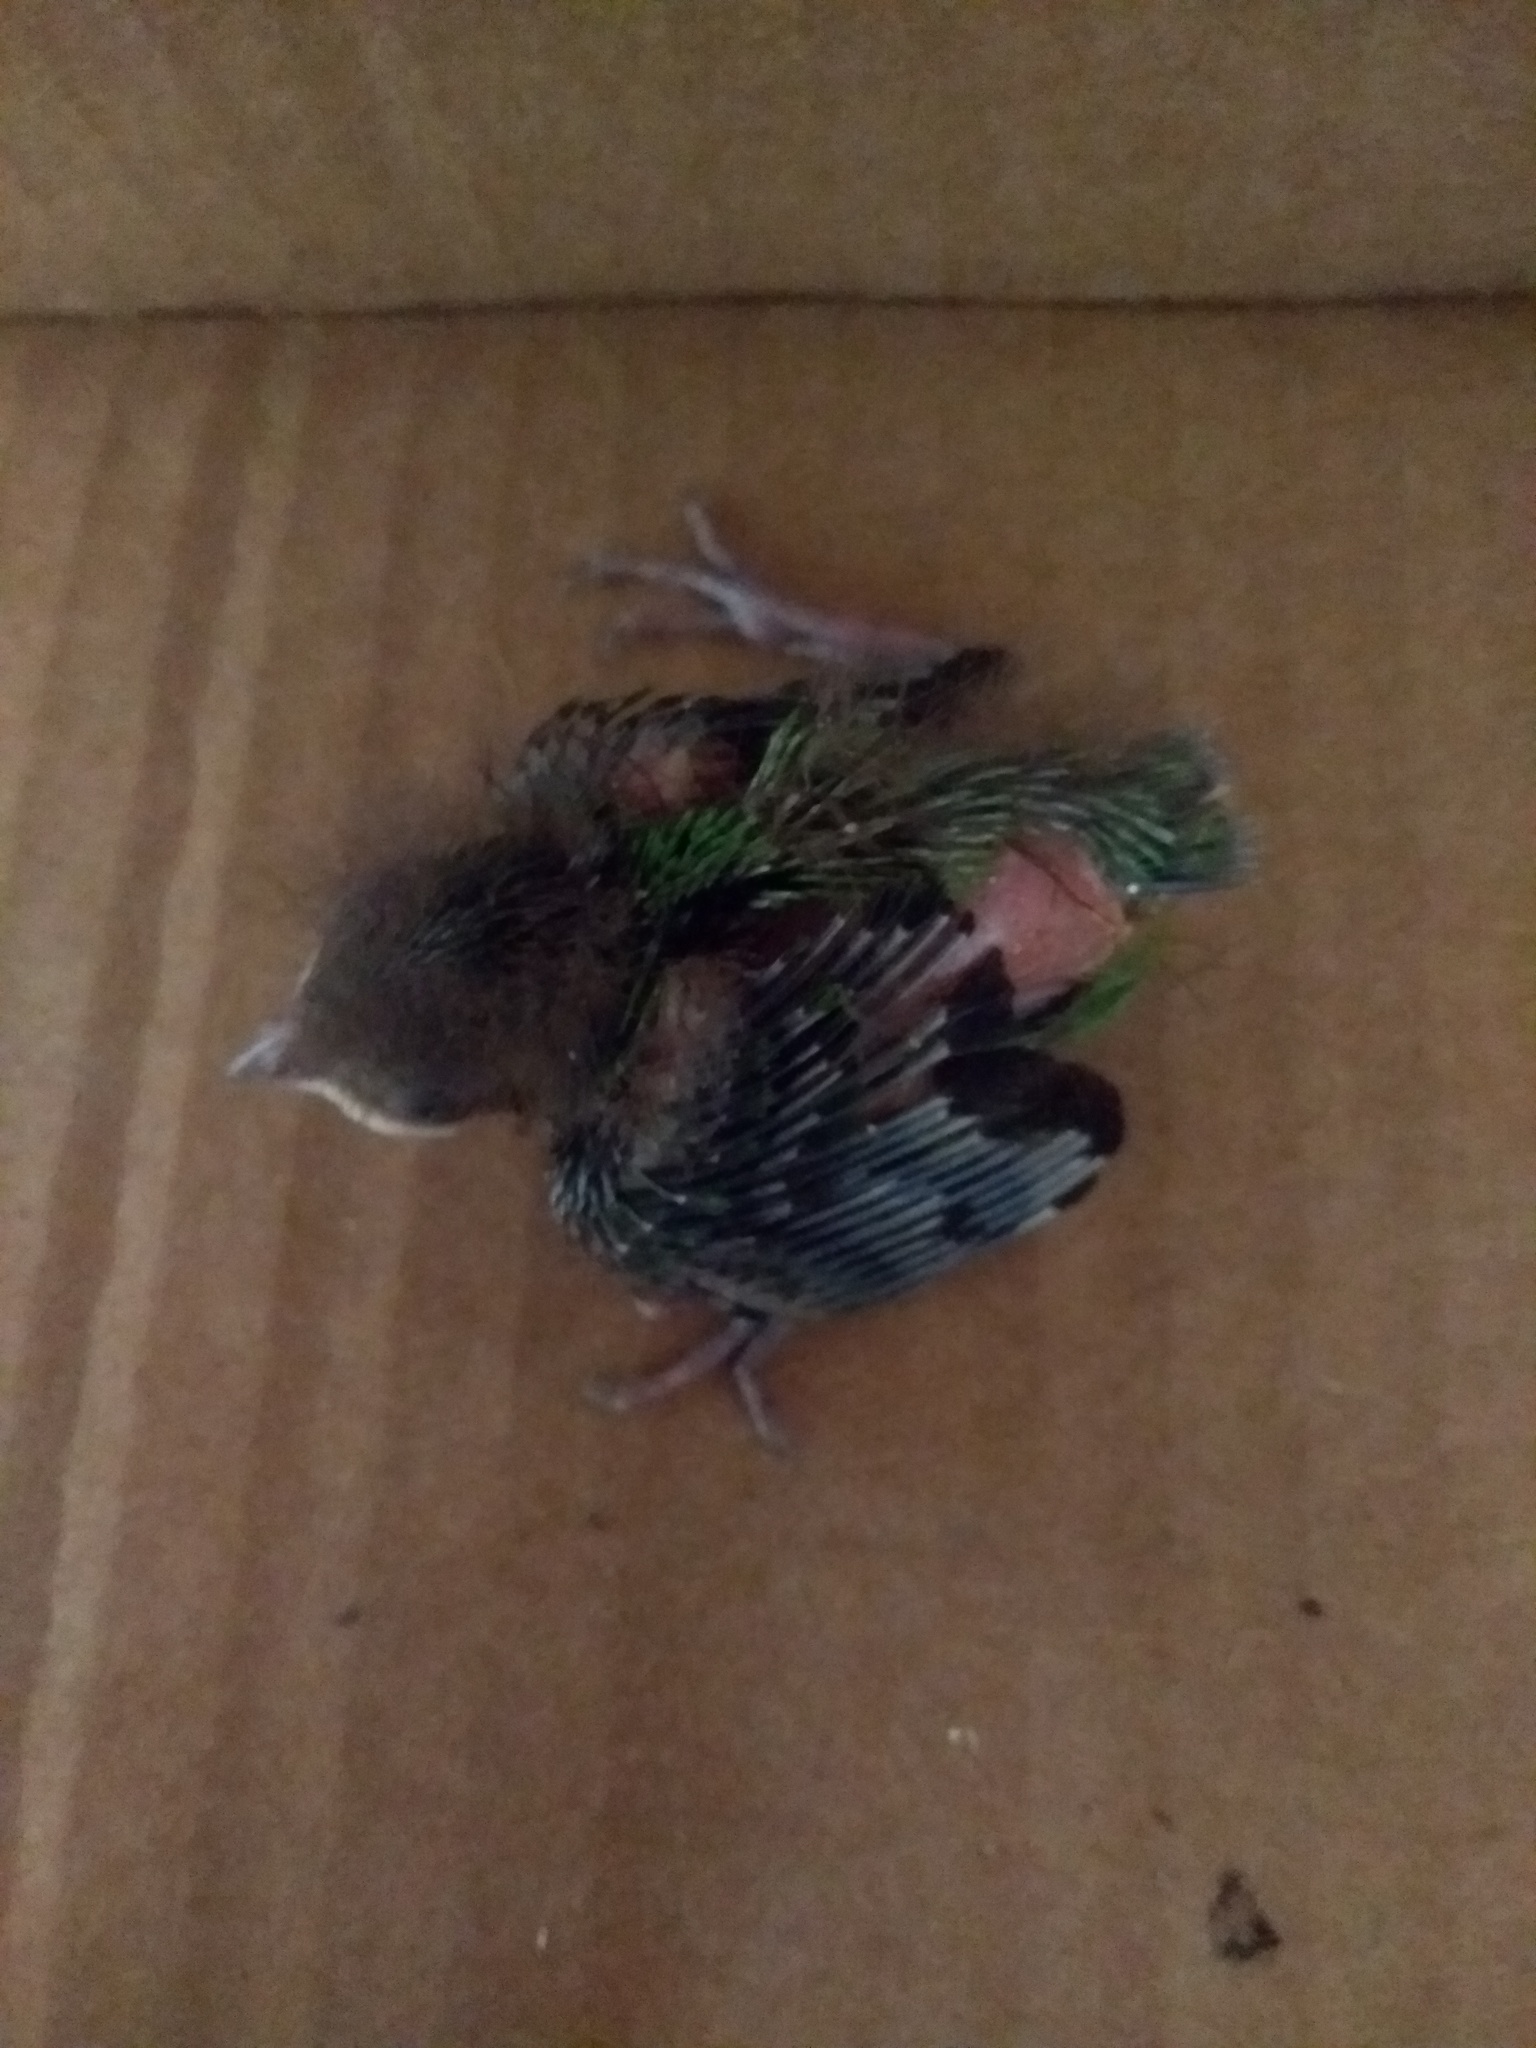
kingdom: Animalia
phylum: Chordata
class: Aves
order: Passeriformes
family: Thraupidae
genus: Tangara
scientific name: Tangara seledon
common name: Green-headed tanager
